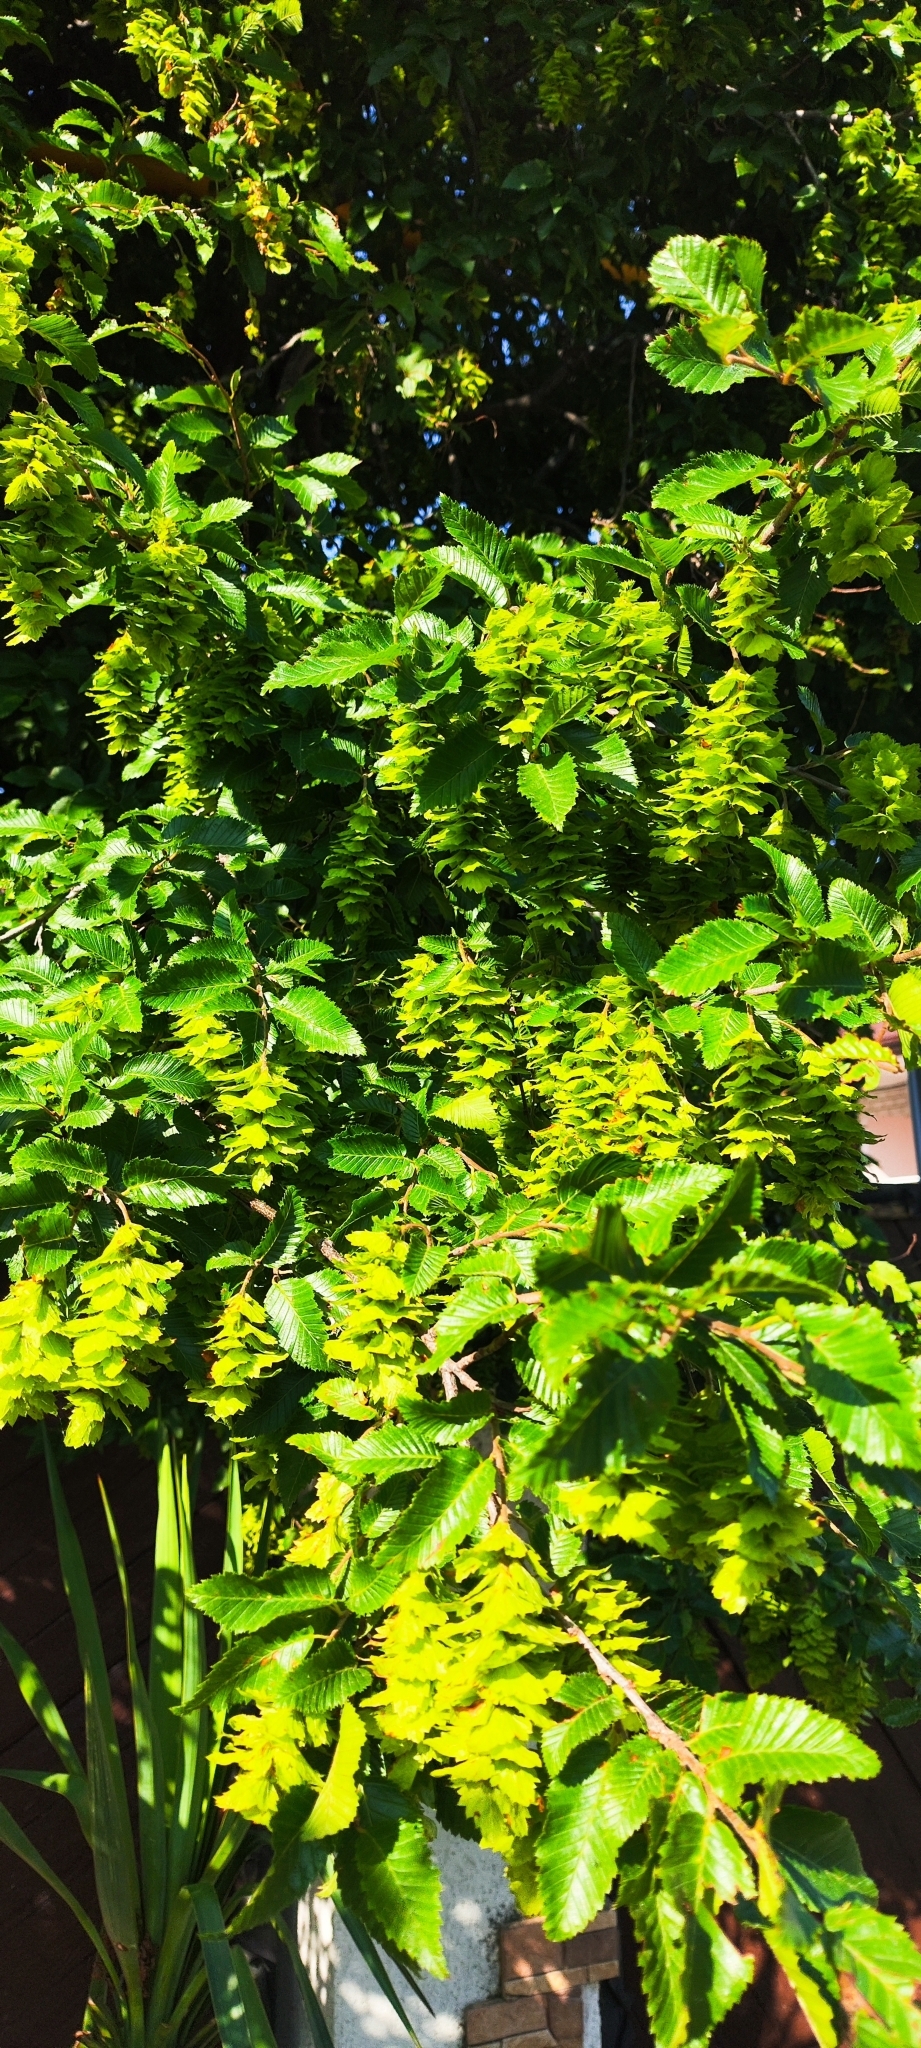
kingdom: Plantae
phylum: Tracheophyta
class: Magnoliopsida
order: Fagales
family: Betulaceae
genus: Carpinus
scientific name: Carpinus orientalis
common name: Eastern hornbeam
